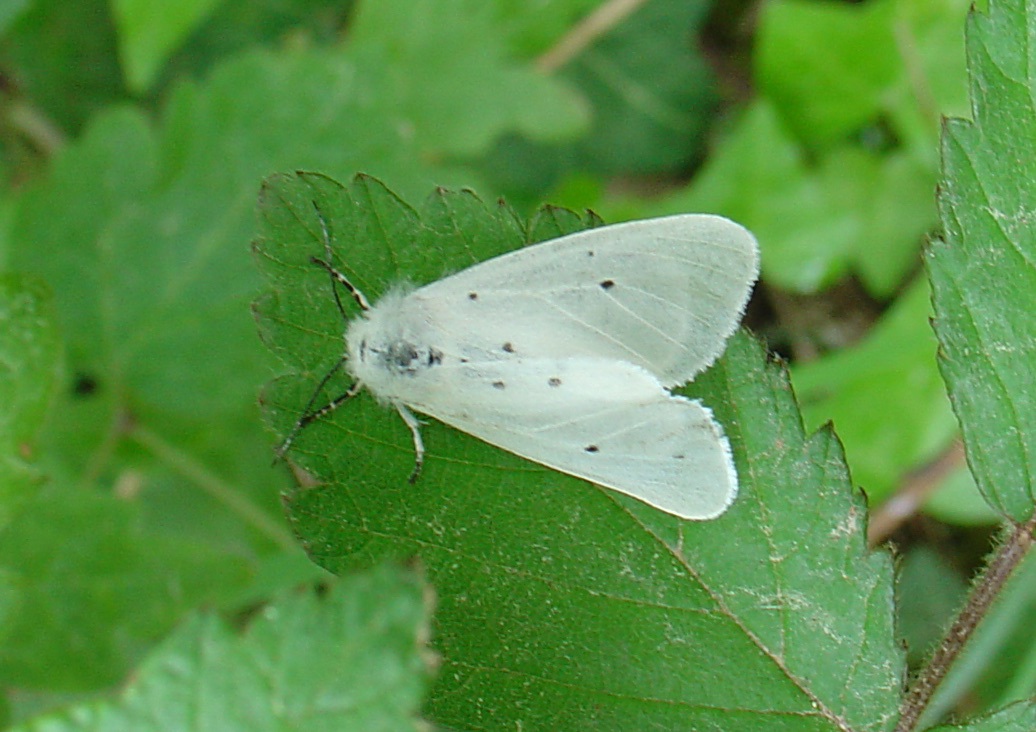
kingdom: Animalia
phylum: Arthropoda
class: Insecta
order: Lepidoptera
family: Erebidae
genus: Diaphora
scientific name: Diaphora mendica
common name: Muslin moth
